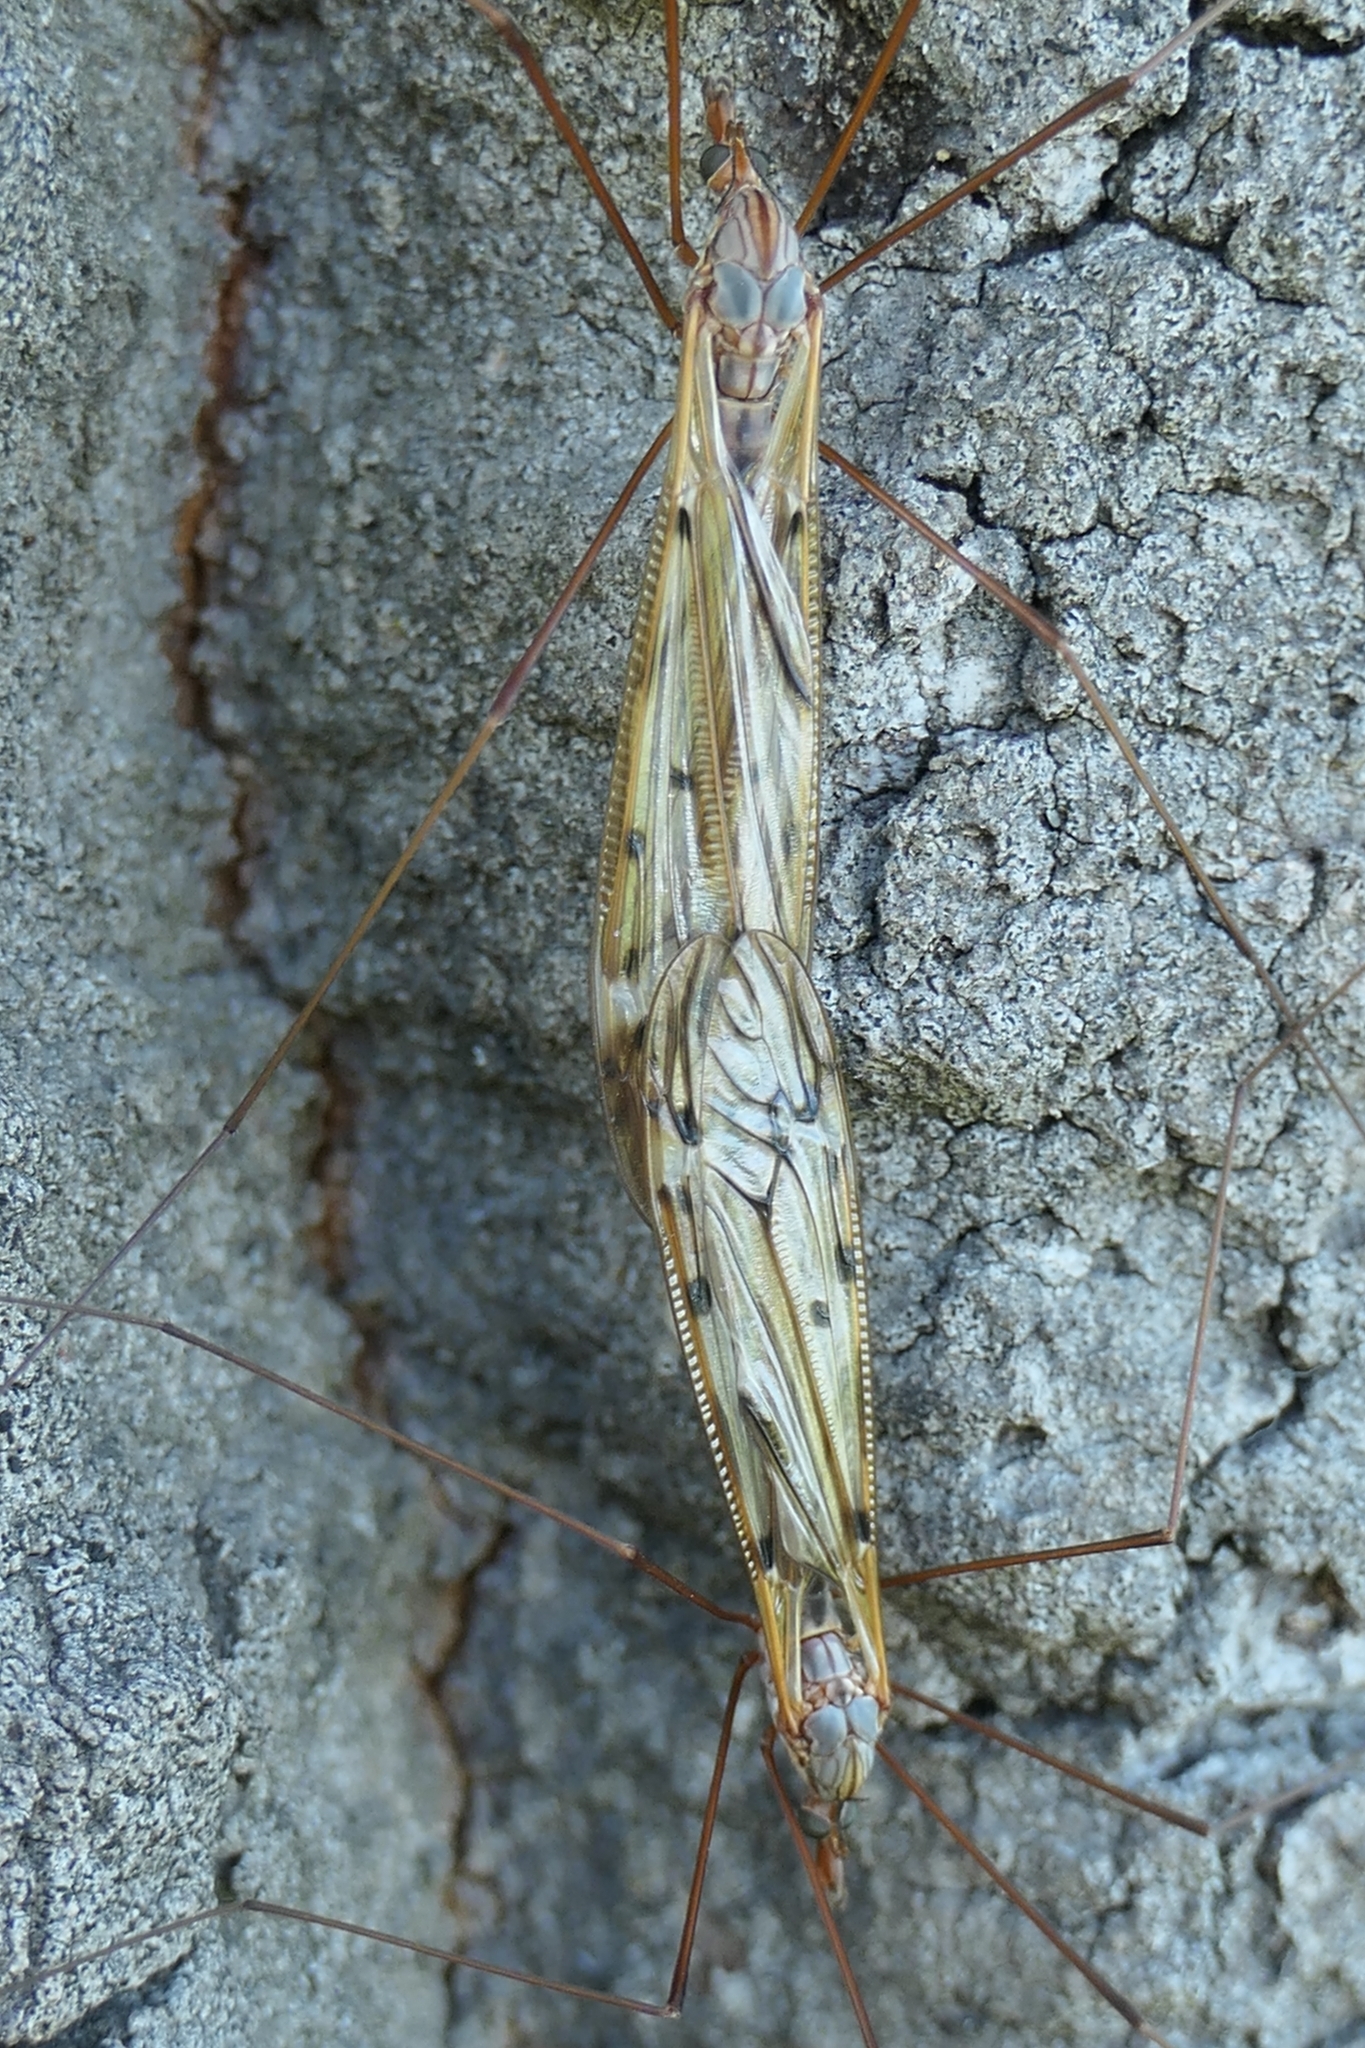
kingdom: Animalia
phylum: Arthropoda
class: Insecta
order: Diptera
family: Tipulidae
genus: Zelandotipula
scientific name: Zelandotipula novarae
